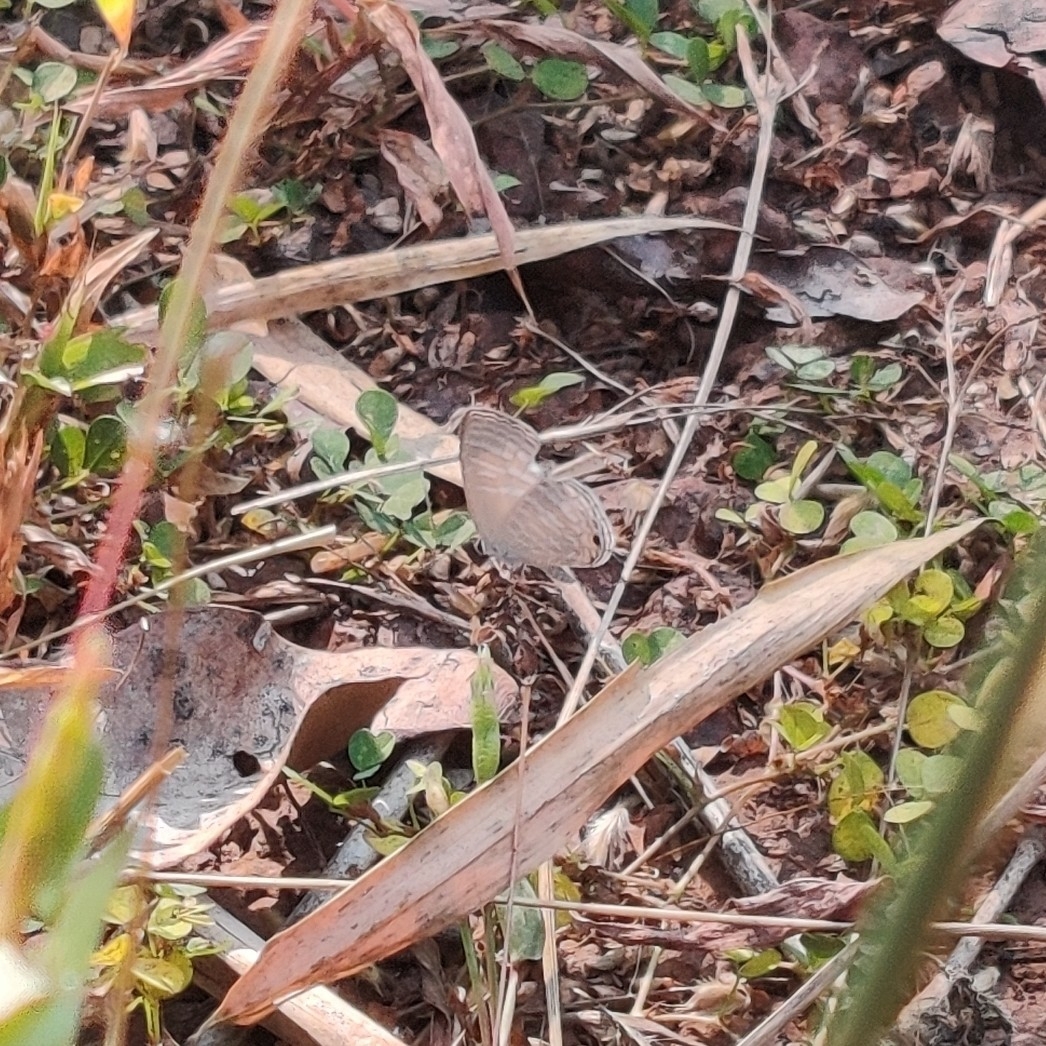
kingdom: Animalia
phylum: Arthropoda
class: Insecta
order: Lepidoptera
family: Lycaenidae
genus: Jamides
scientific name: Jamides celeno
